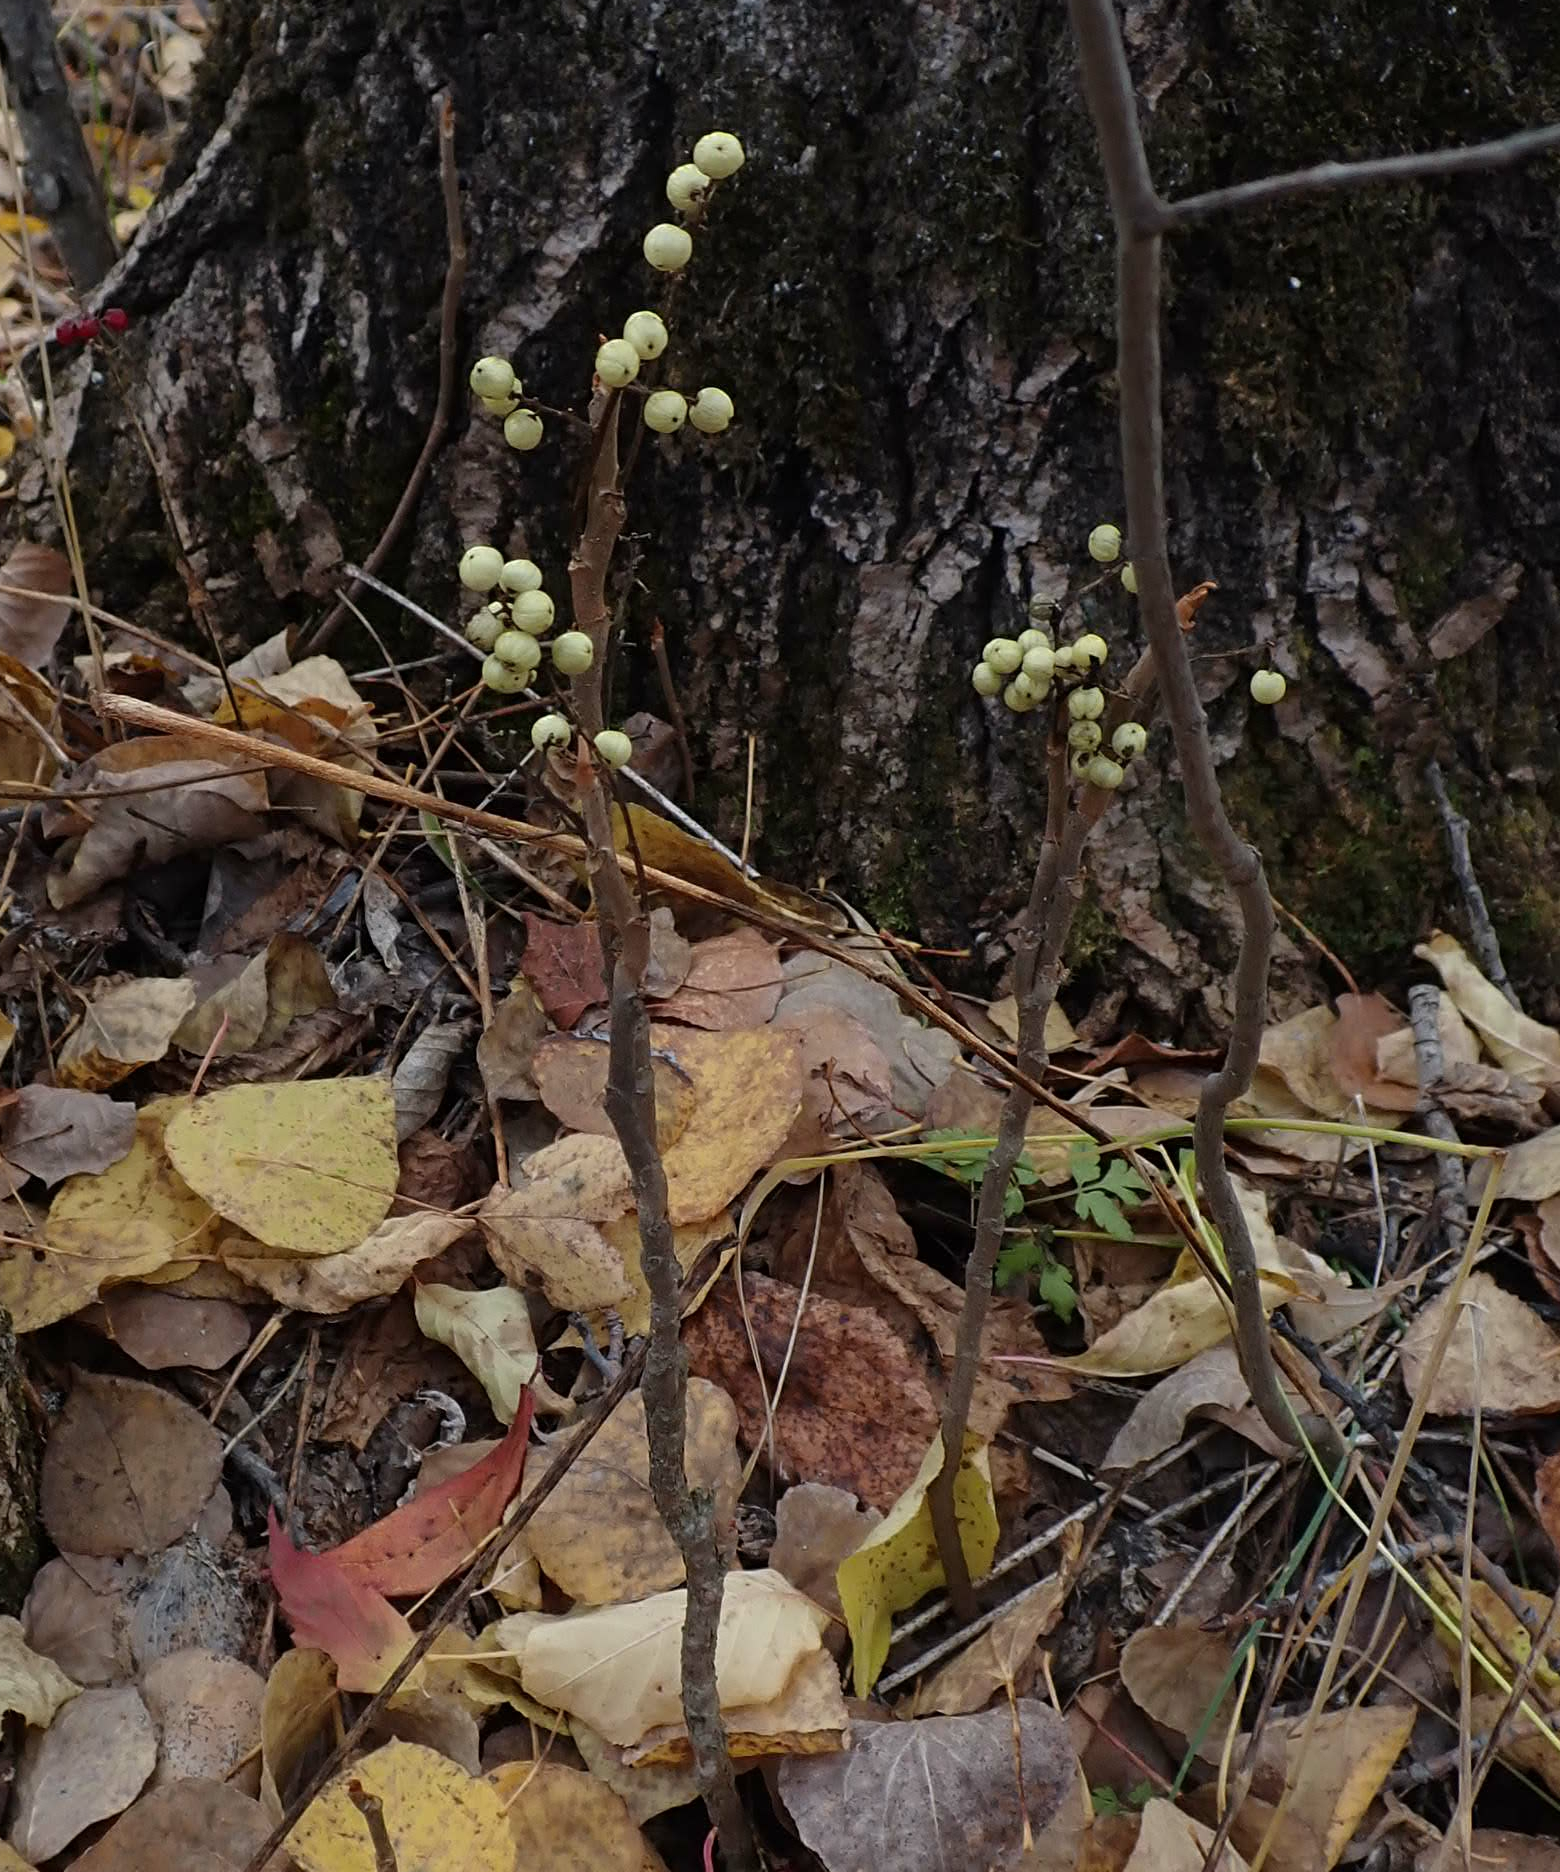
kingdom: Plantae
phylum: Tracheophyta
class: Magnoliopsida
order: Sapindales
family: Anacardiaceae
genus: Toxicodendron
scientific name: Toxicodendron rydbergii
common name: Rydberg's poison-ivy
